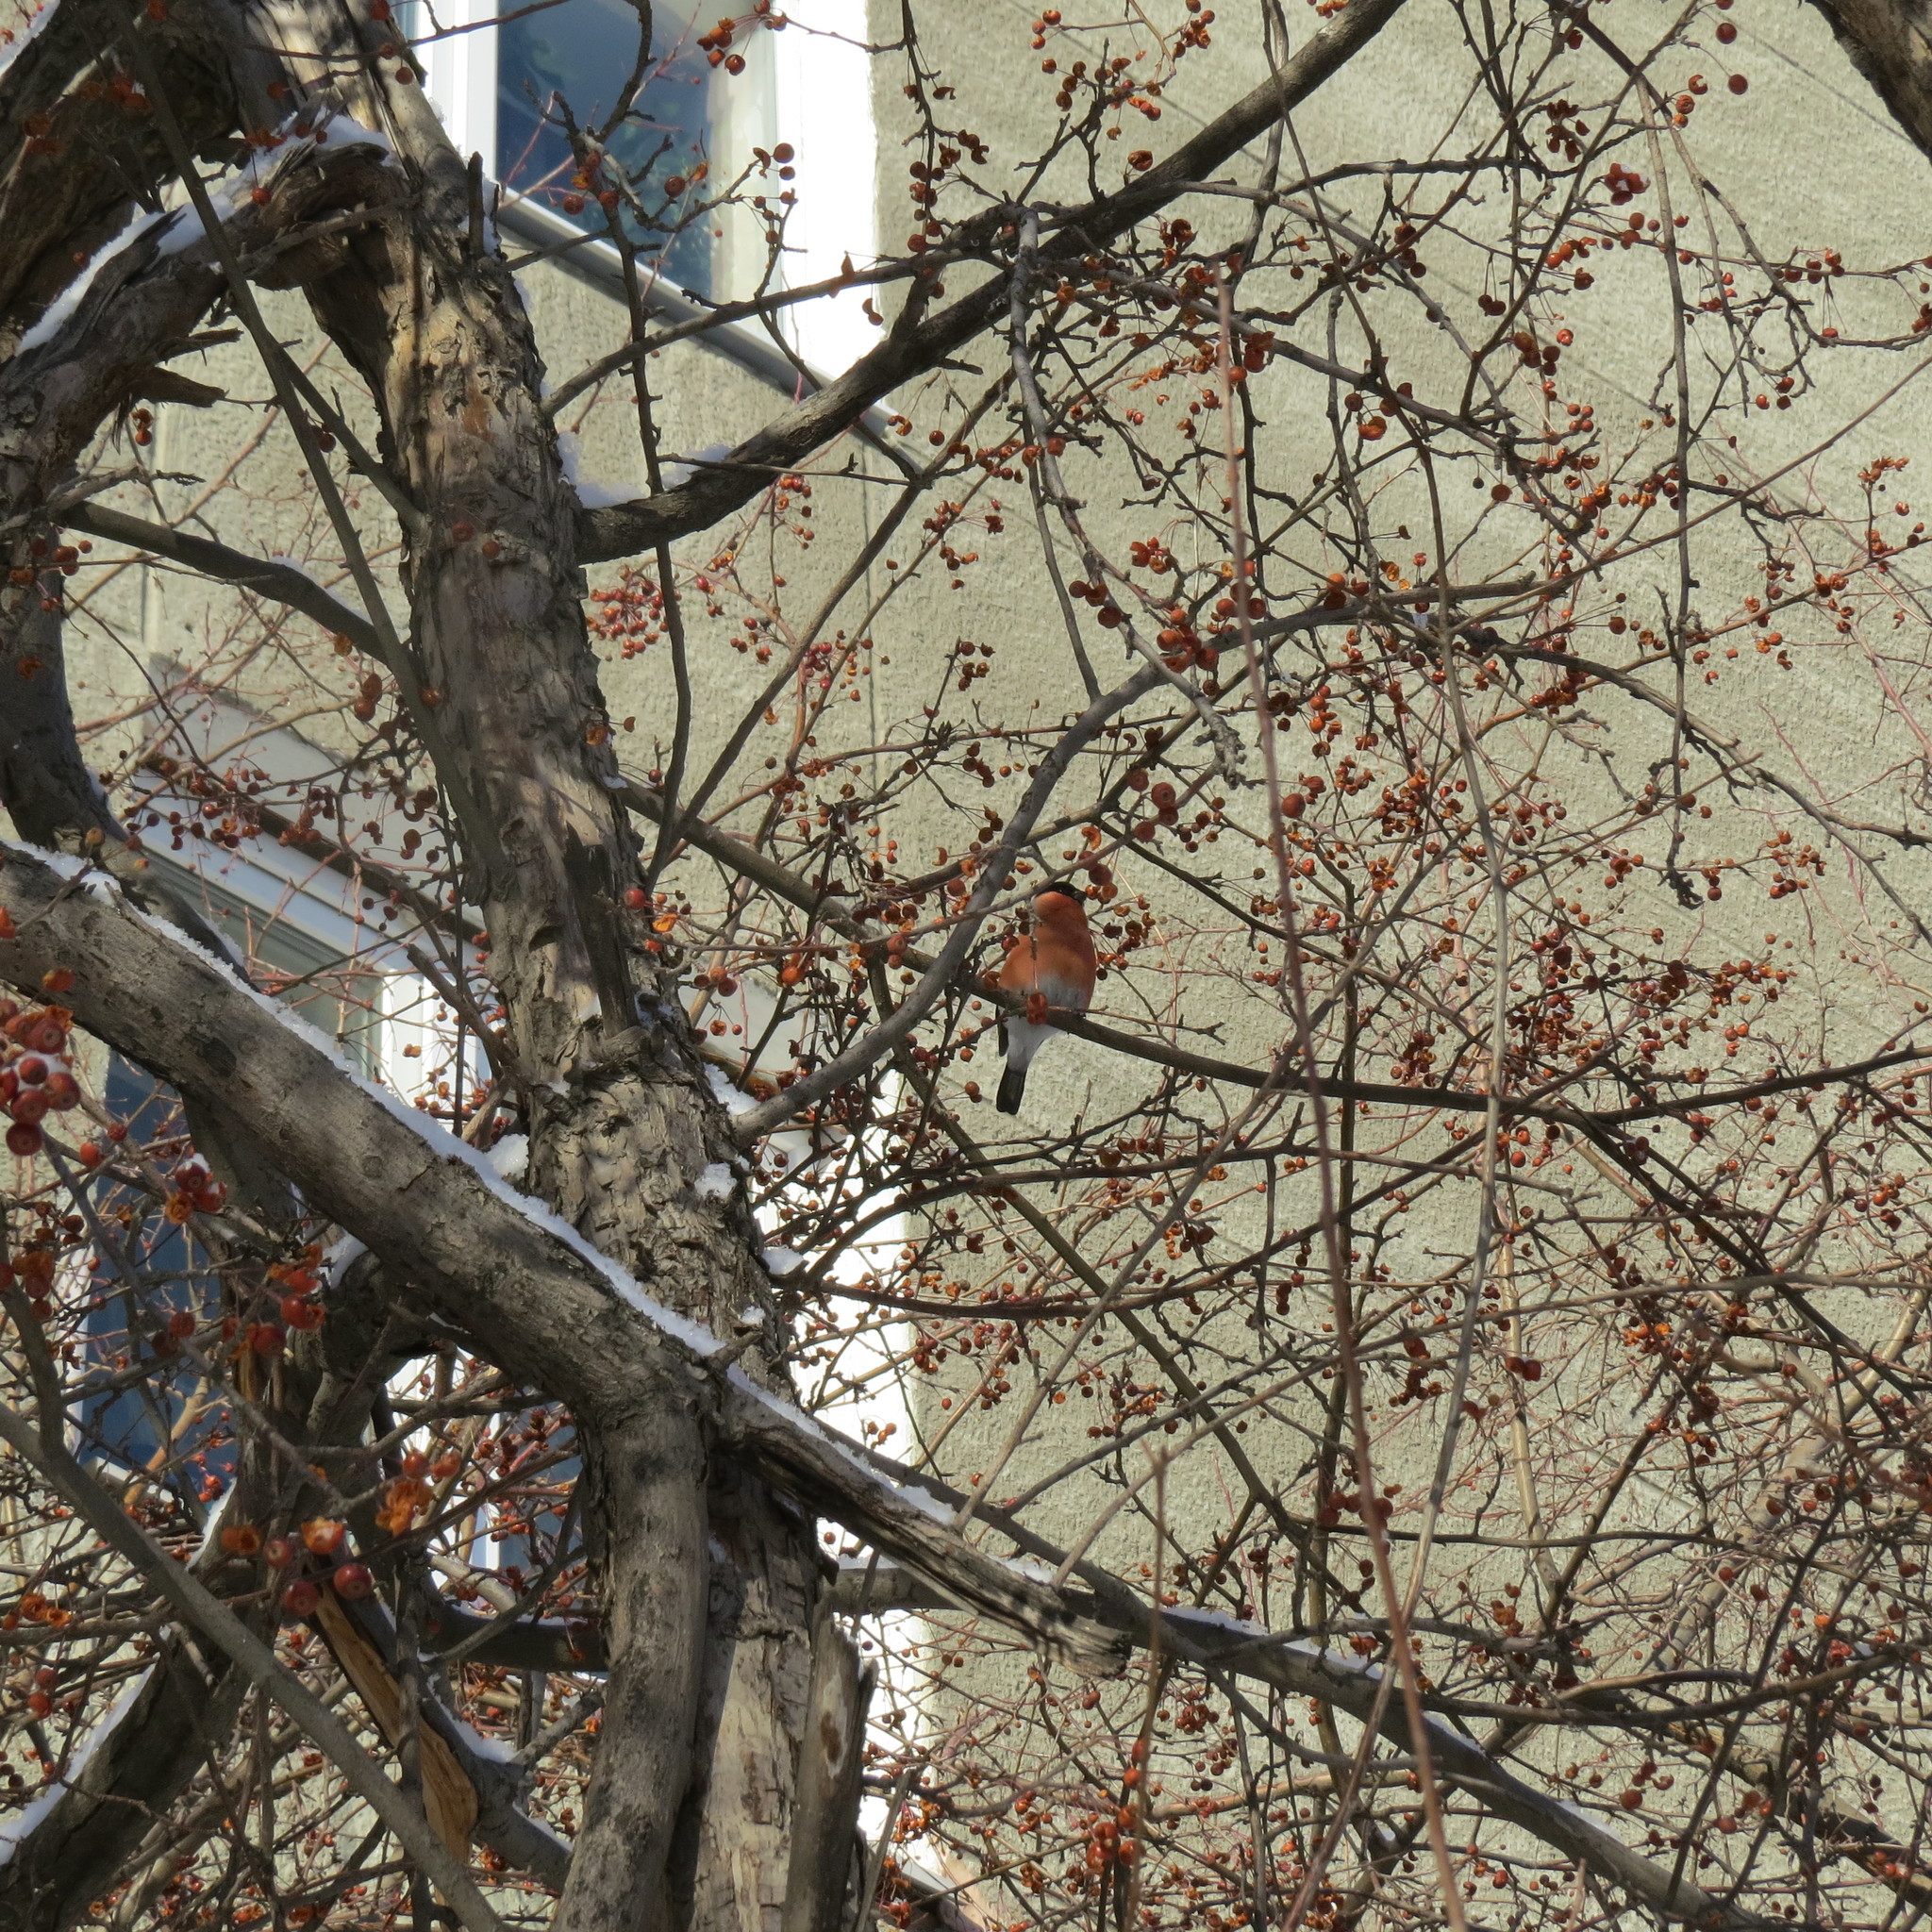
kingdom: Animalia
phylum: Chordata
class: Aves
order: Passeriformes
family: Fringillidae
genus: Pyrrhula
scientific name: Pyrrhula pyrrhula
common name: Eurasian bullfinch
